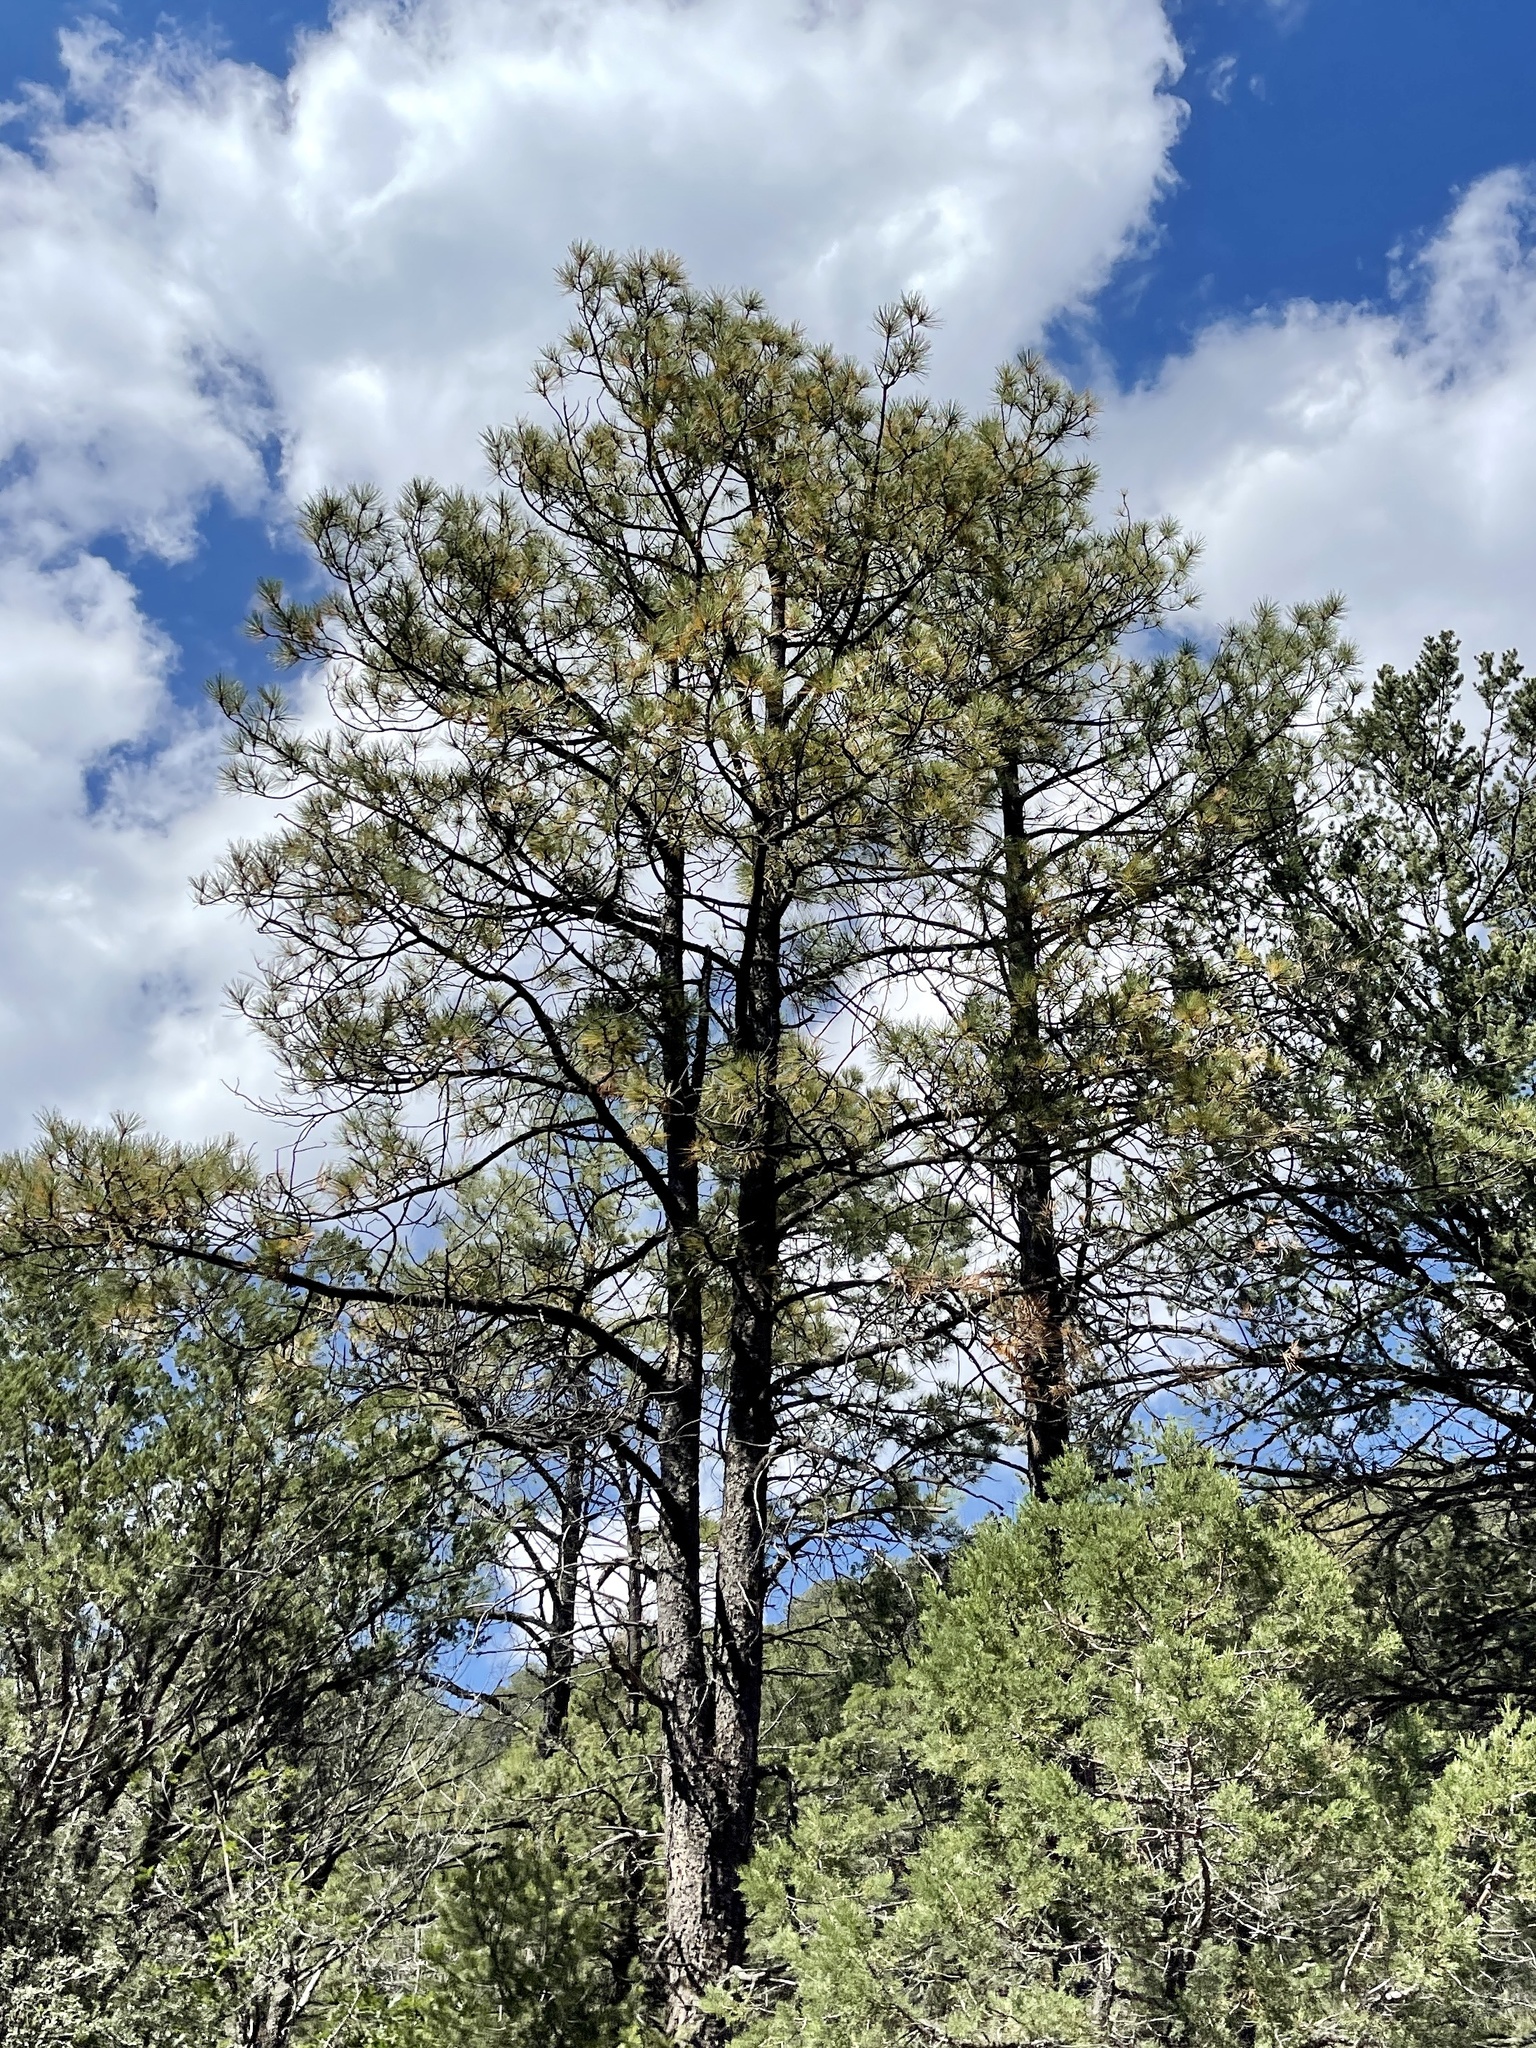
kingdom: Plantae
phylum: Tracheophyta
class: Pinopsida
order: Pinales
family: Pinaceae
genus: Pinus
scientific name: Pinus ponderosa
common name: Western yellow-pine
